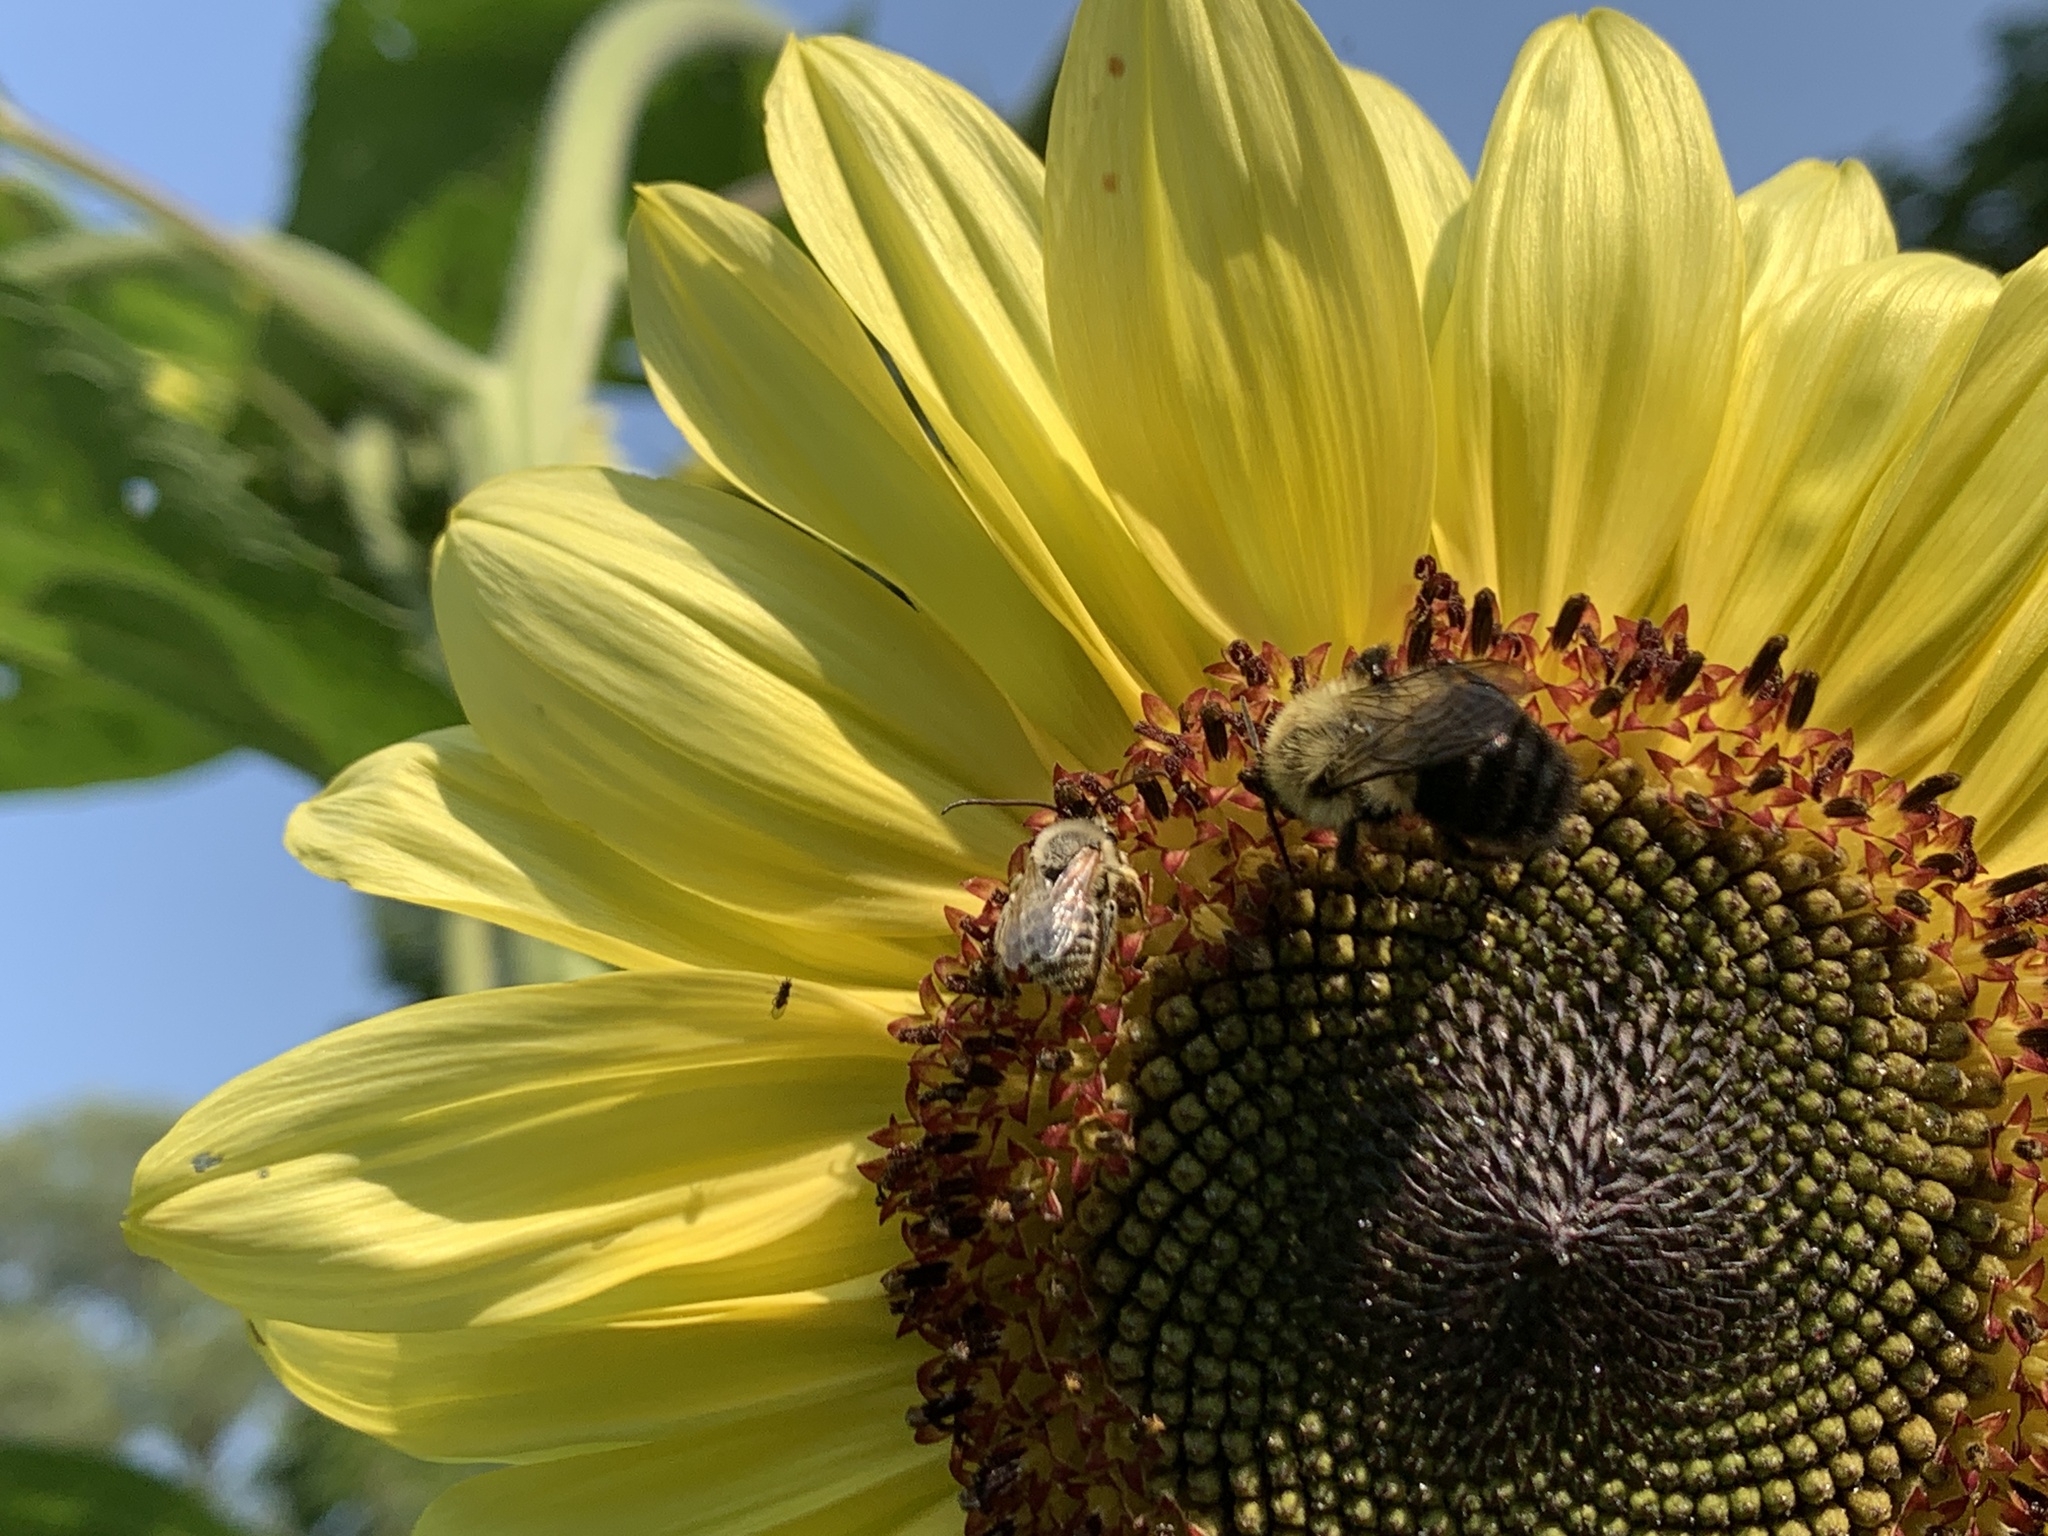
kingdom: Animalia
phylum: Arthropoda
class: Insecta
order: Hymenoptera
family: Apidae
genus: Bombus
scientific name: Bombus impatiens
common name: Common eastern bumble bee
